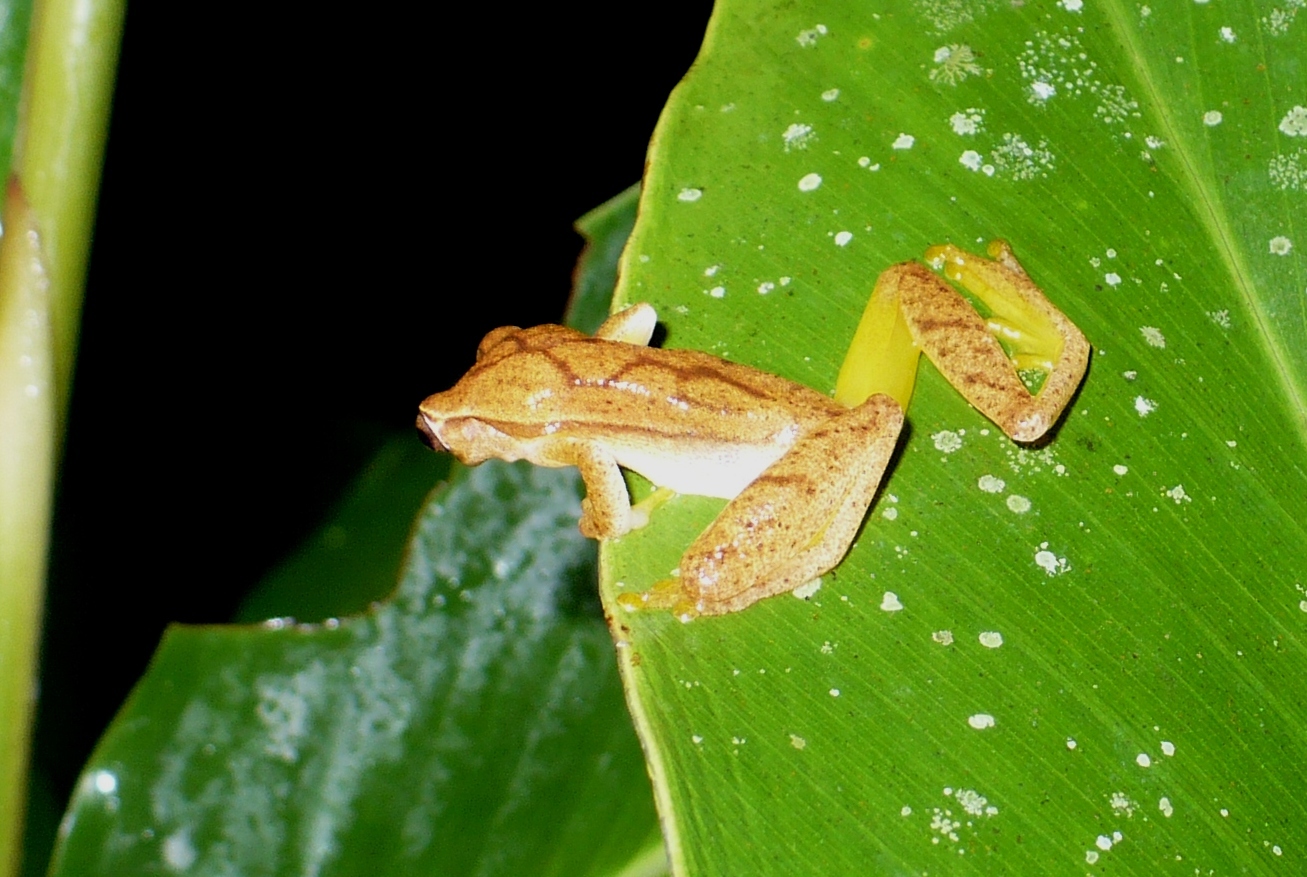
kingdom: Animalia
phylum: Chordata
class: Amphibia
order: Anura
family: Hylidae
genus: Dendropsophus
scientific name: Dendropsophus microcephalus
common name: Small-headed treefrog
